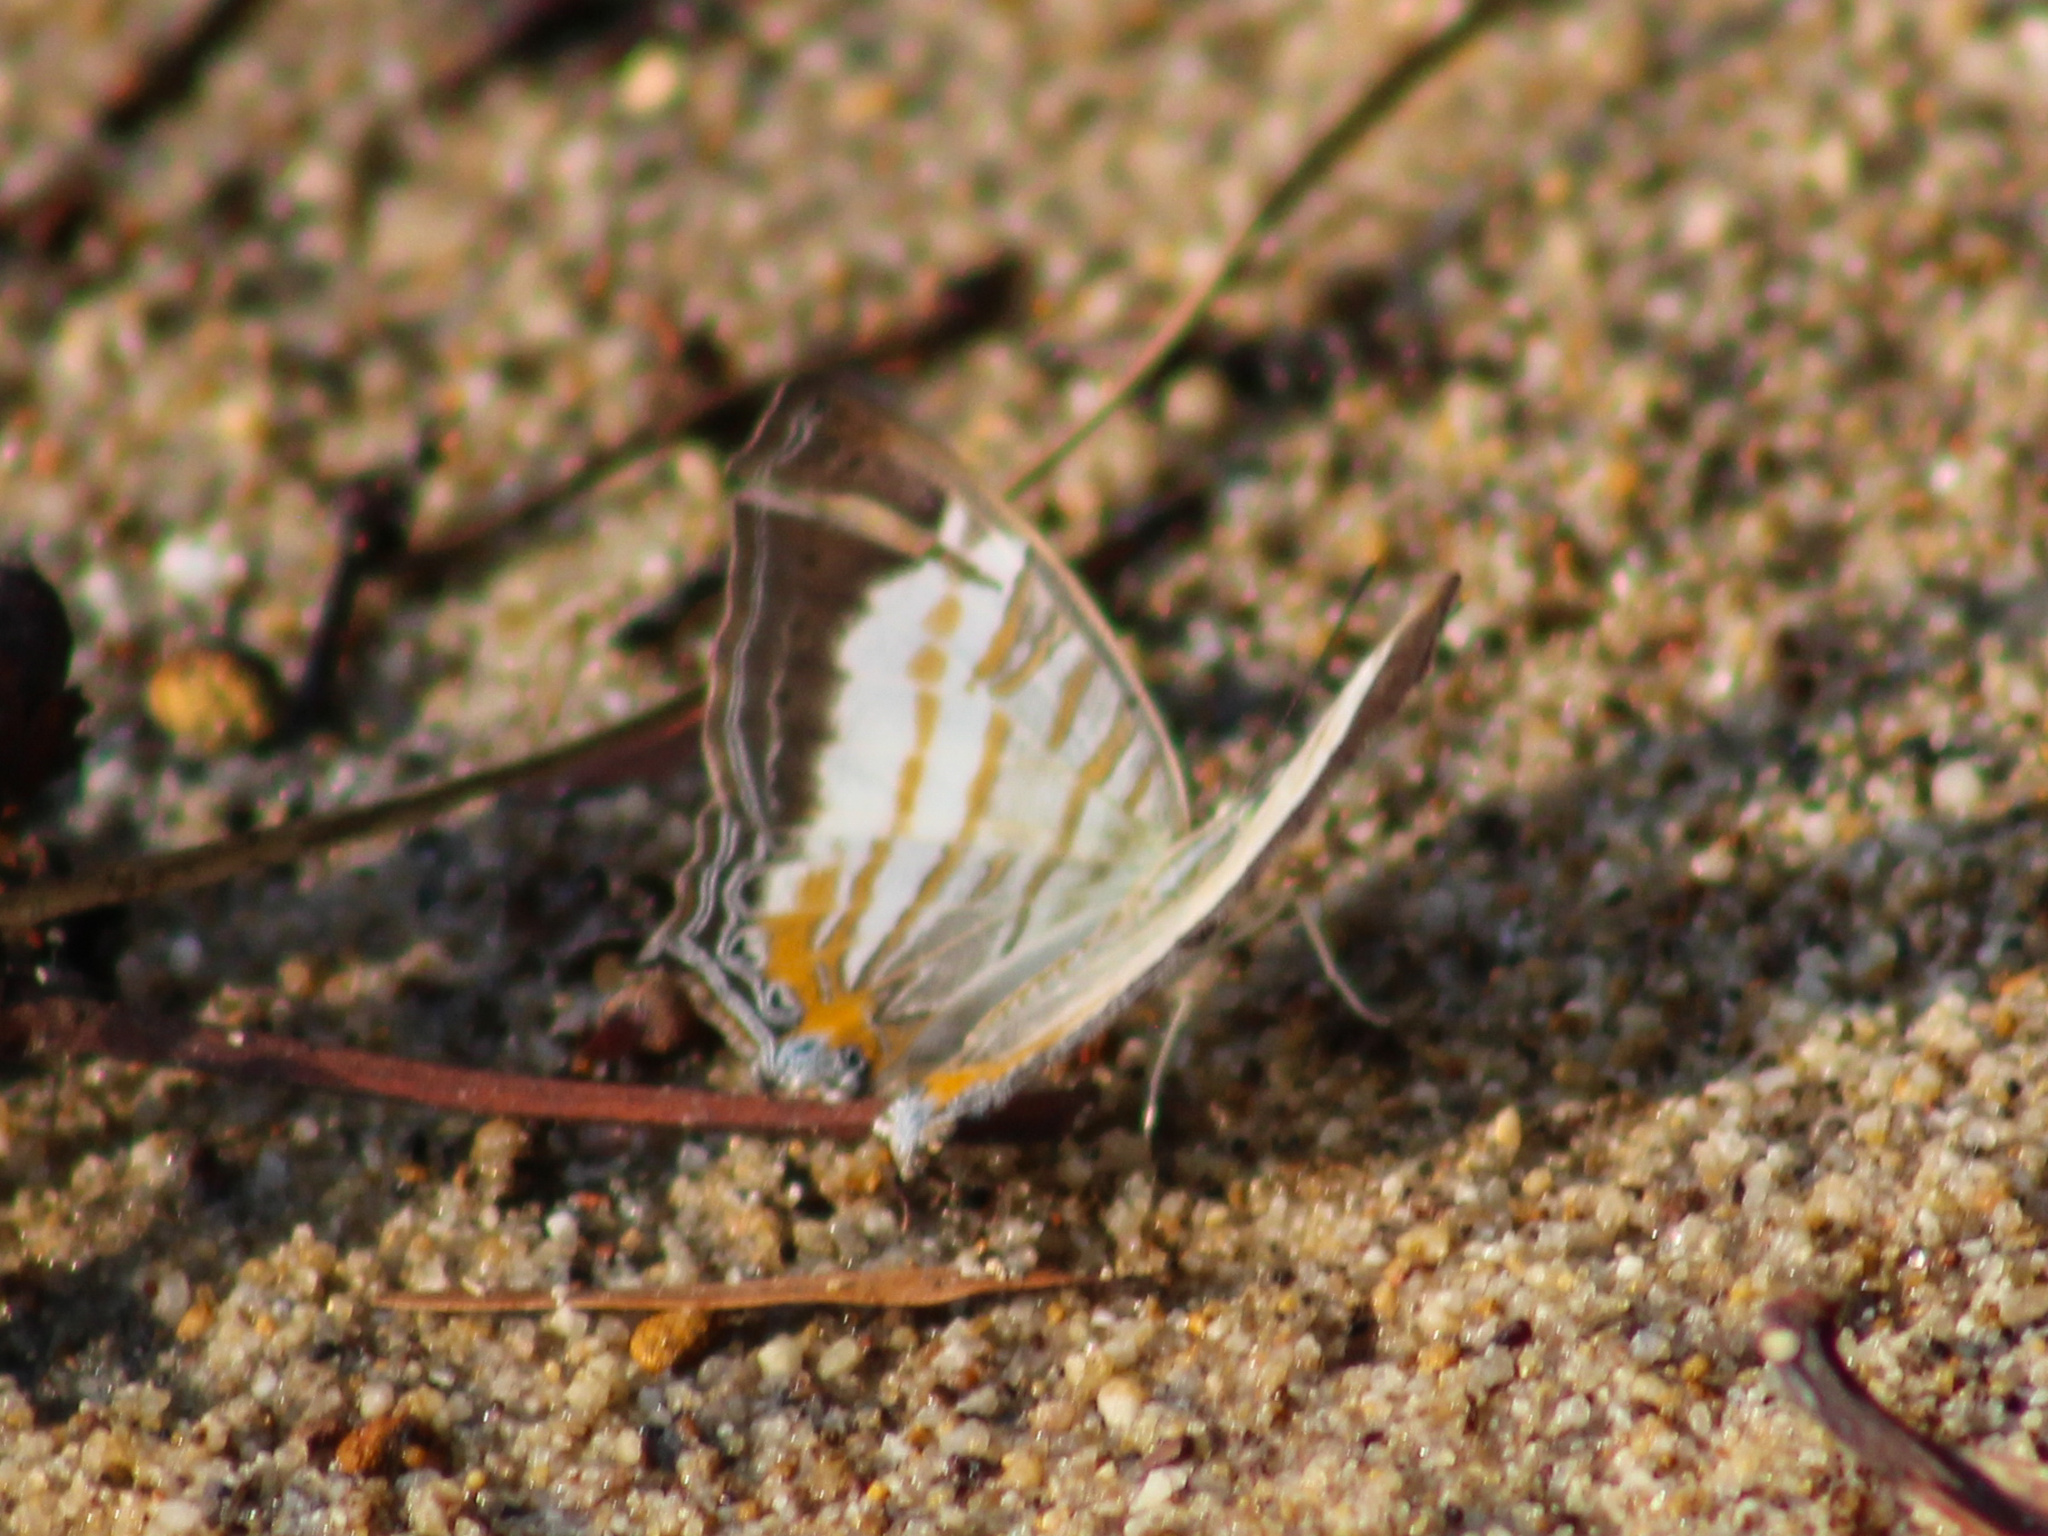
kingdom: Animalia
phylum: Arthropoda
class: Insecta
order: Lepidoptera
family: Nymphalidae
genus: Cyrestis
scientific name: Cyrestis themire
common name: Little mapwing
